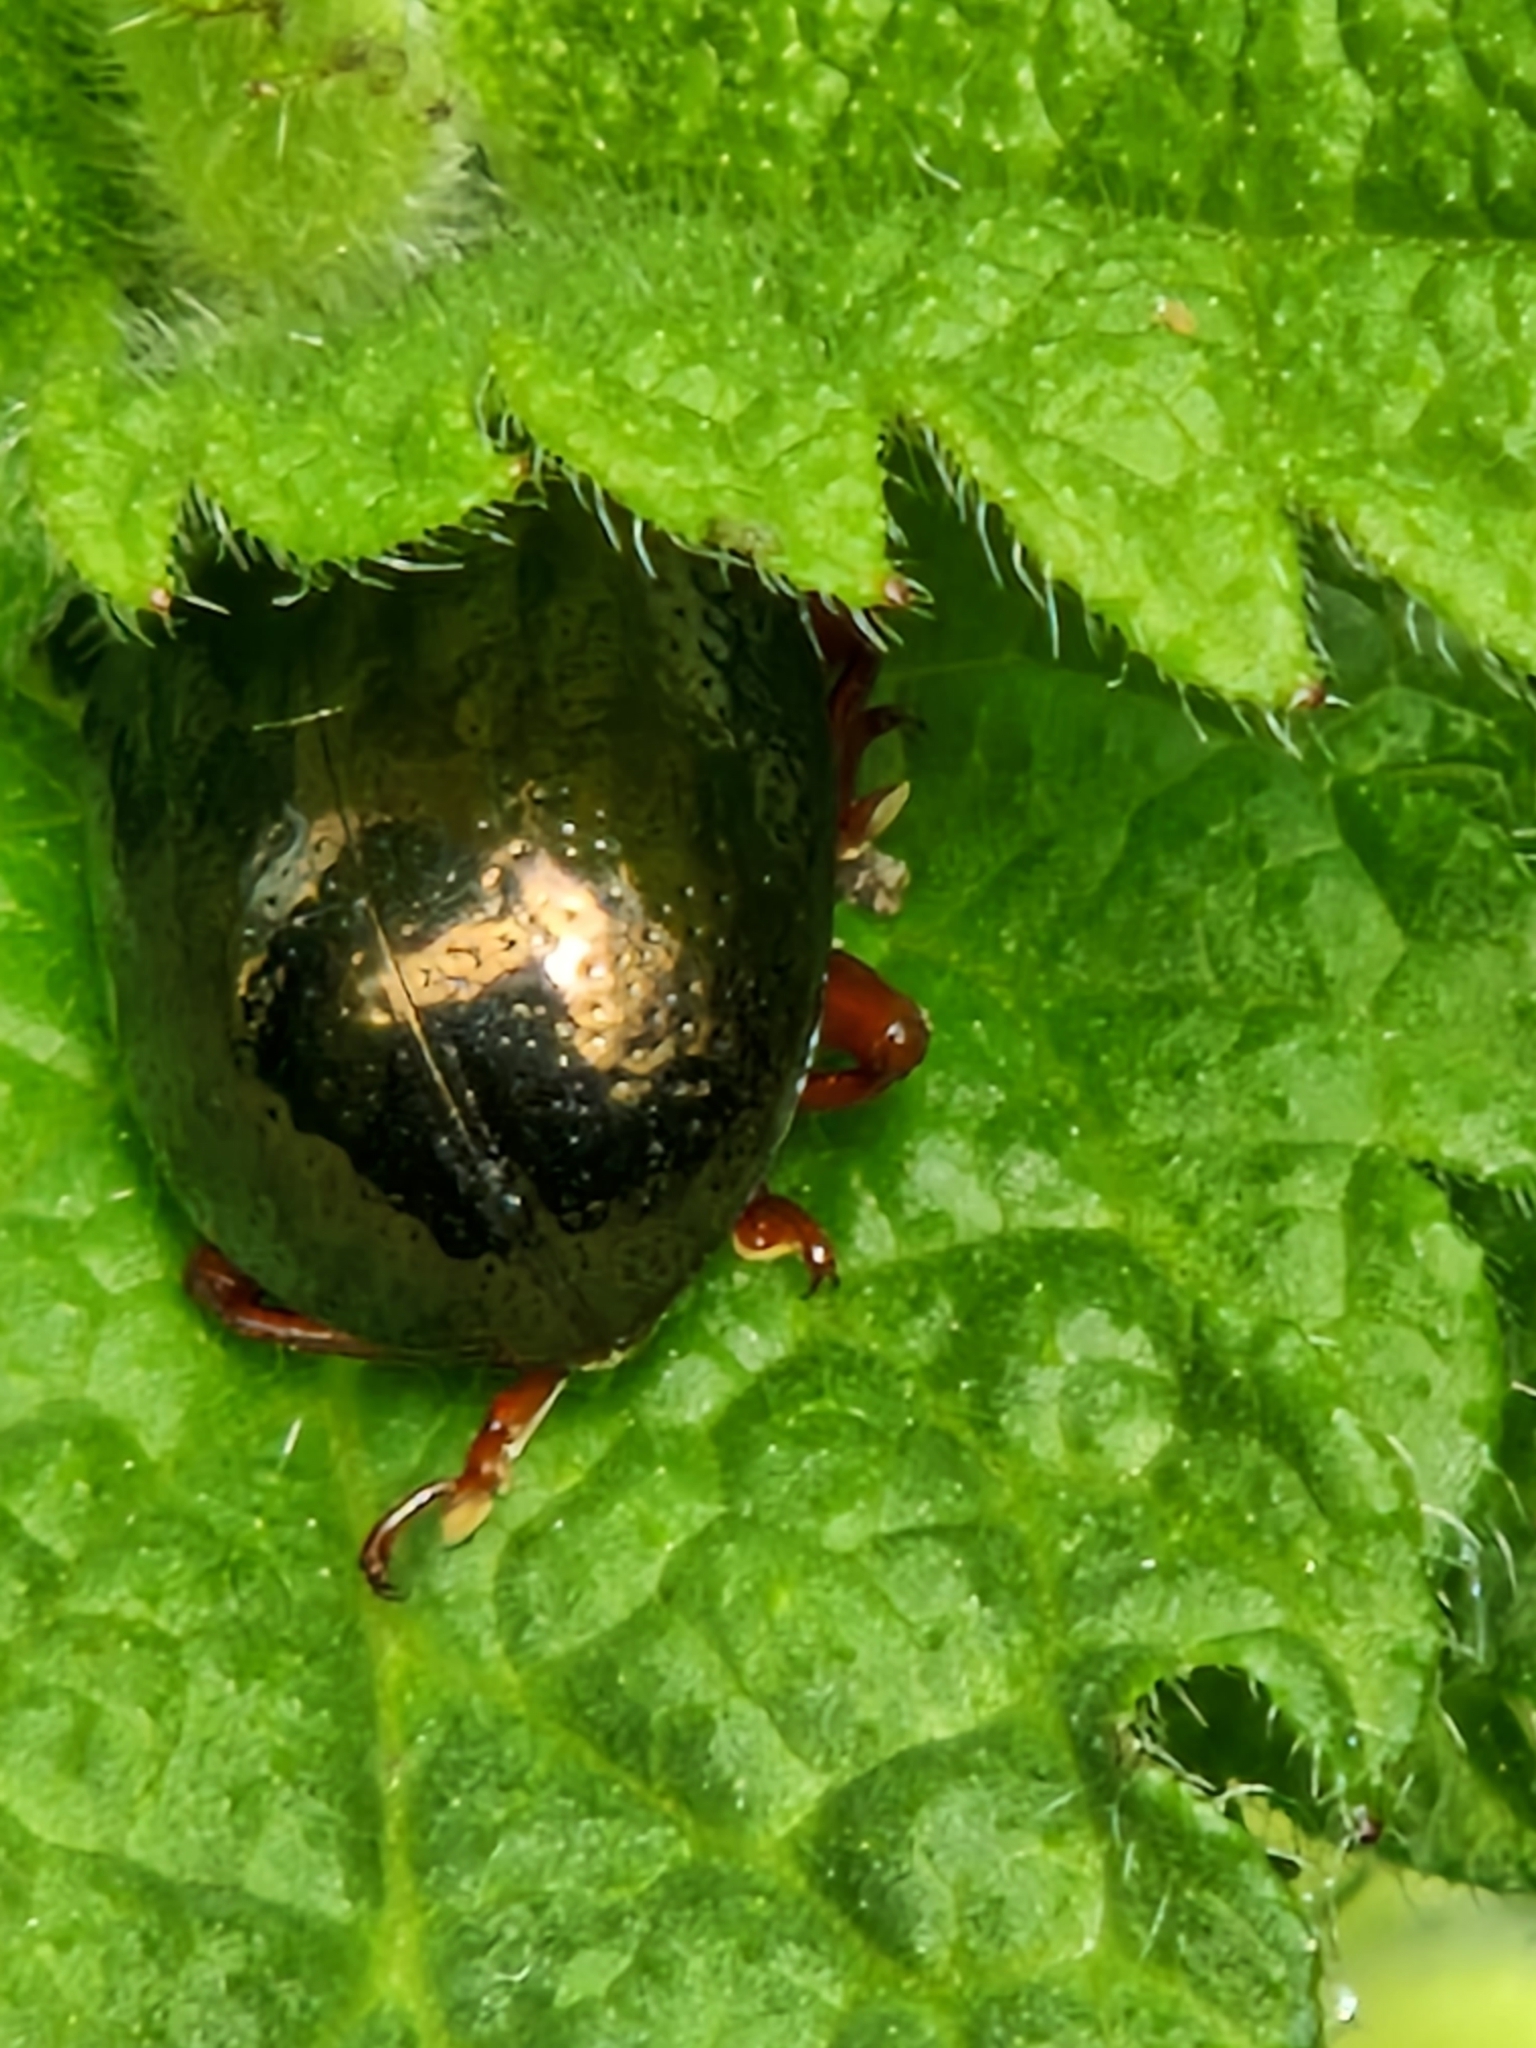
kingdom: Animalia
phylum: Arthropoda
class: Insecta
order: Coleoptera
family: Chrysomelidae
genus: Chrysolina
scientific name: Chrysolina bankii
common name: Leaf beetle
